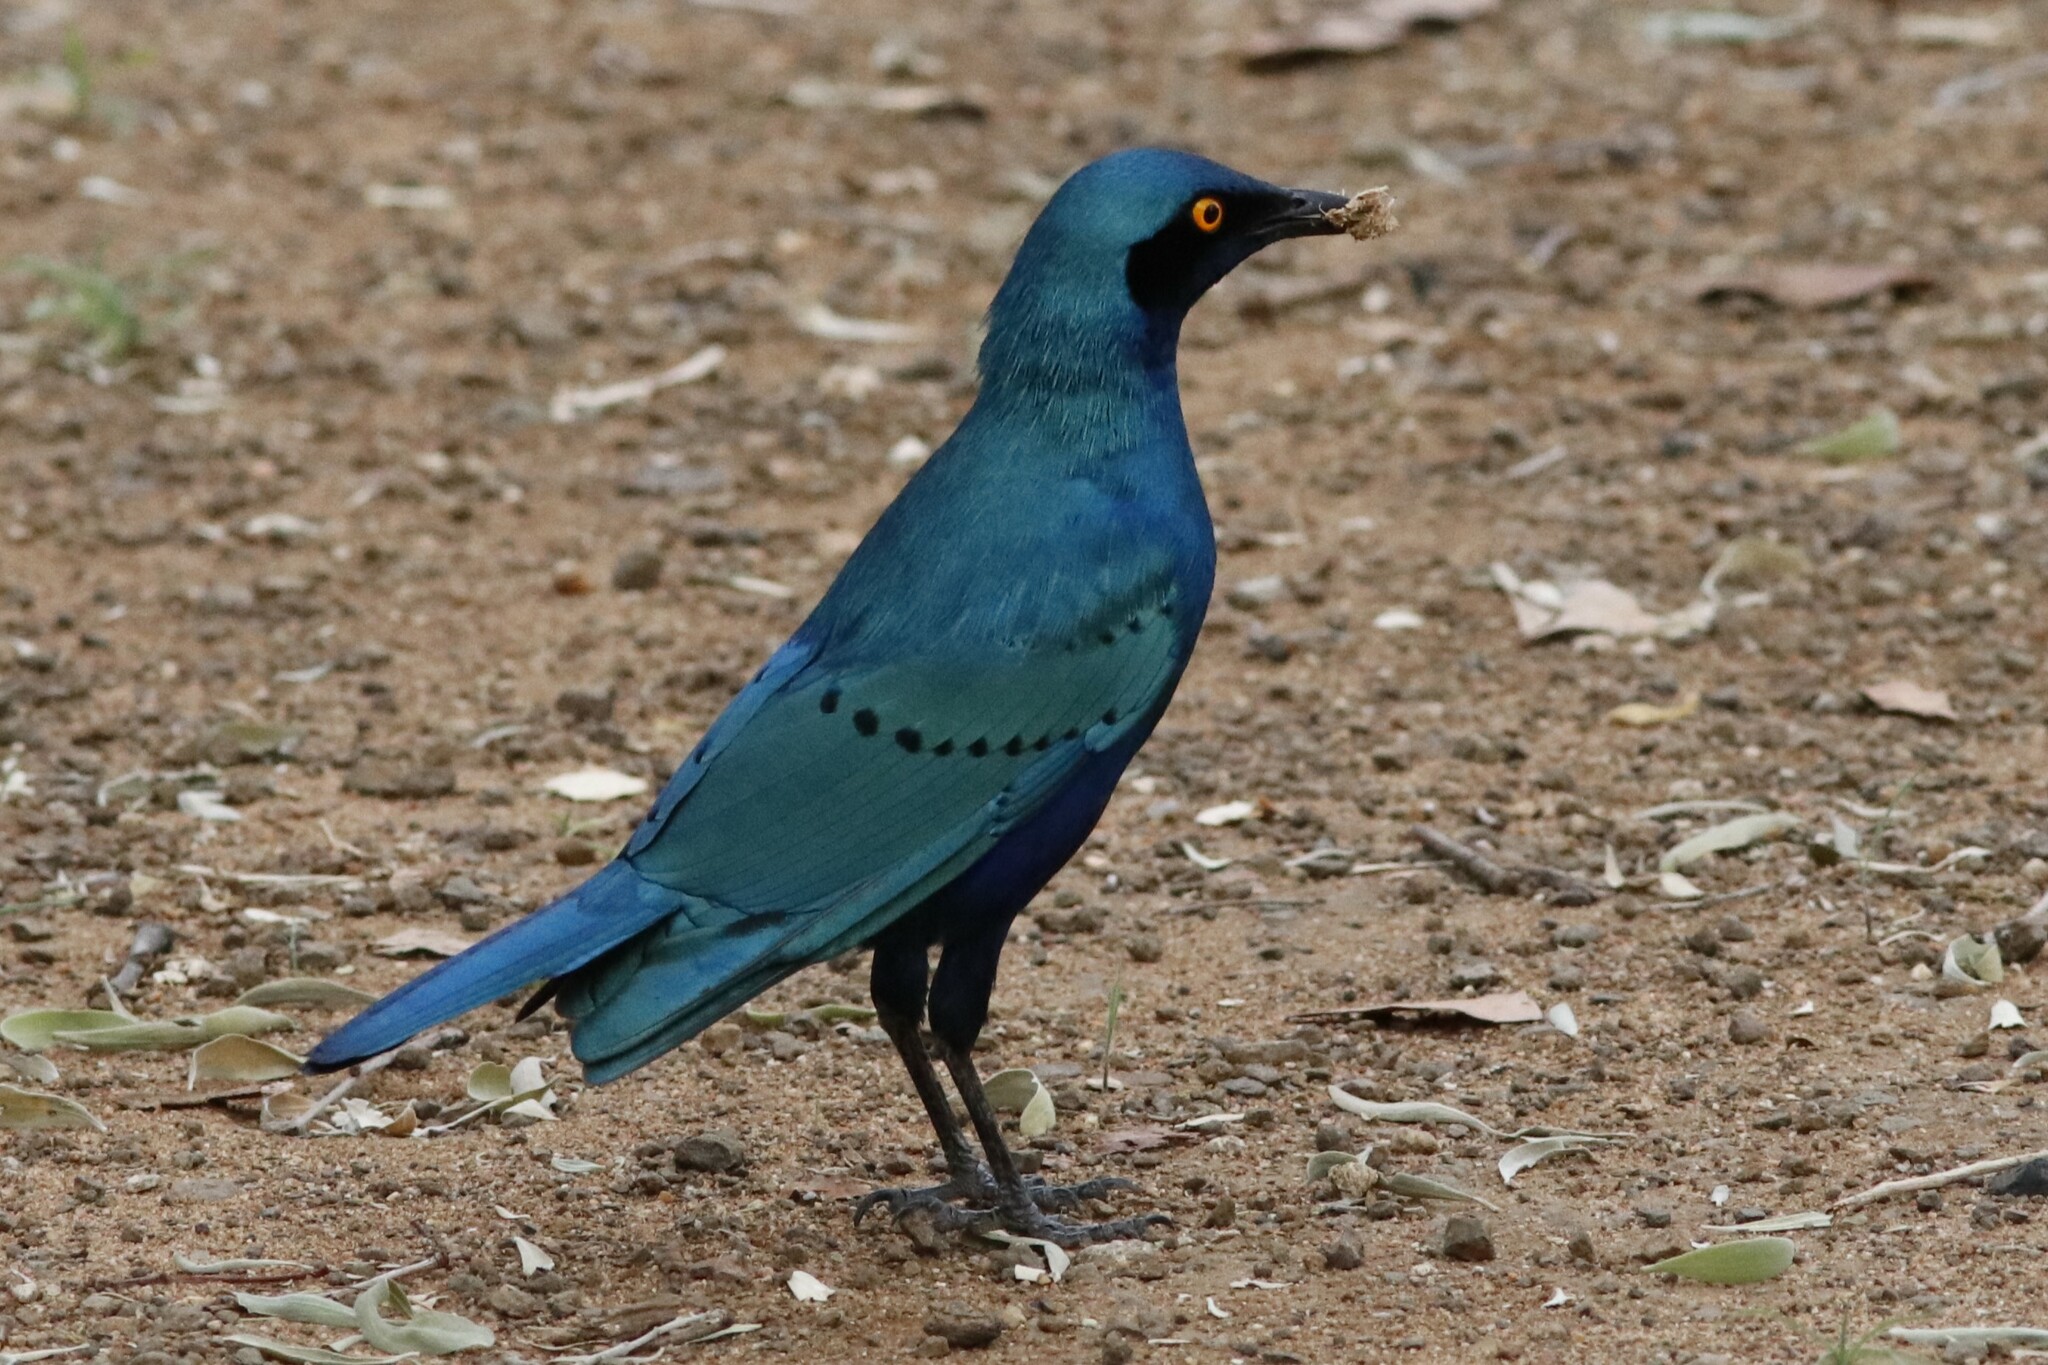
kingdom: Animalia
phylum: Chordata
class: Aves
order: Passeriformes
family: Sturnidae
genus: Lamprotornis
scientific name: Lamprotornis chalybaeus
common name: Greater blue-eared starling
